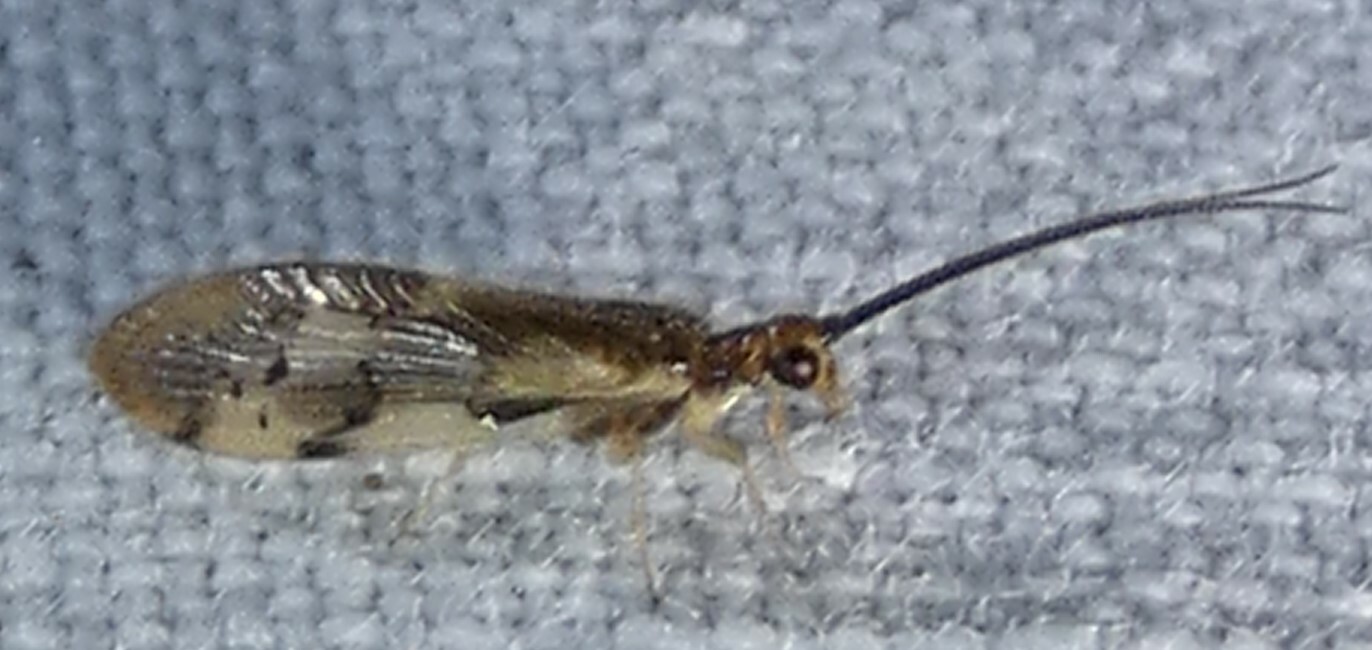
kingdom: Animalia
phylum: Arthropoda
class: Insecta
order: Neuroptera
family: Sisyridae
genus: Climacia
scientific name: Climacia areolaris
